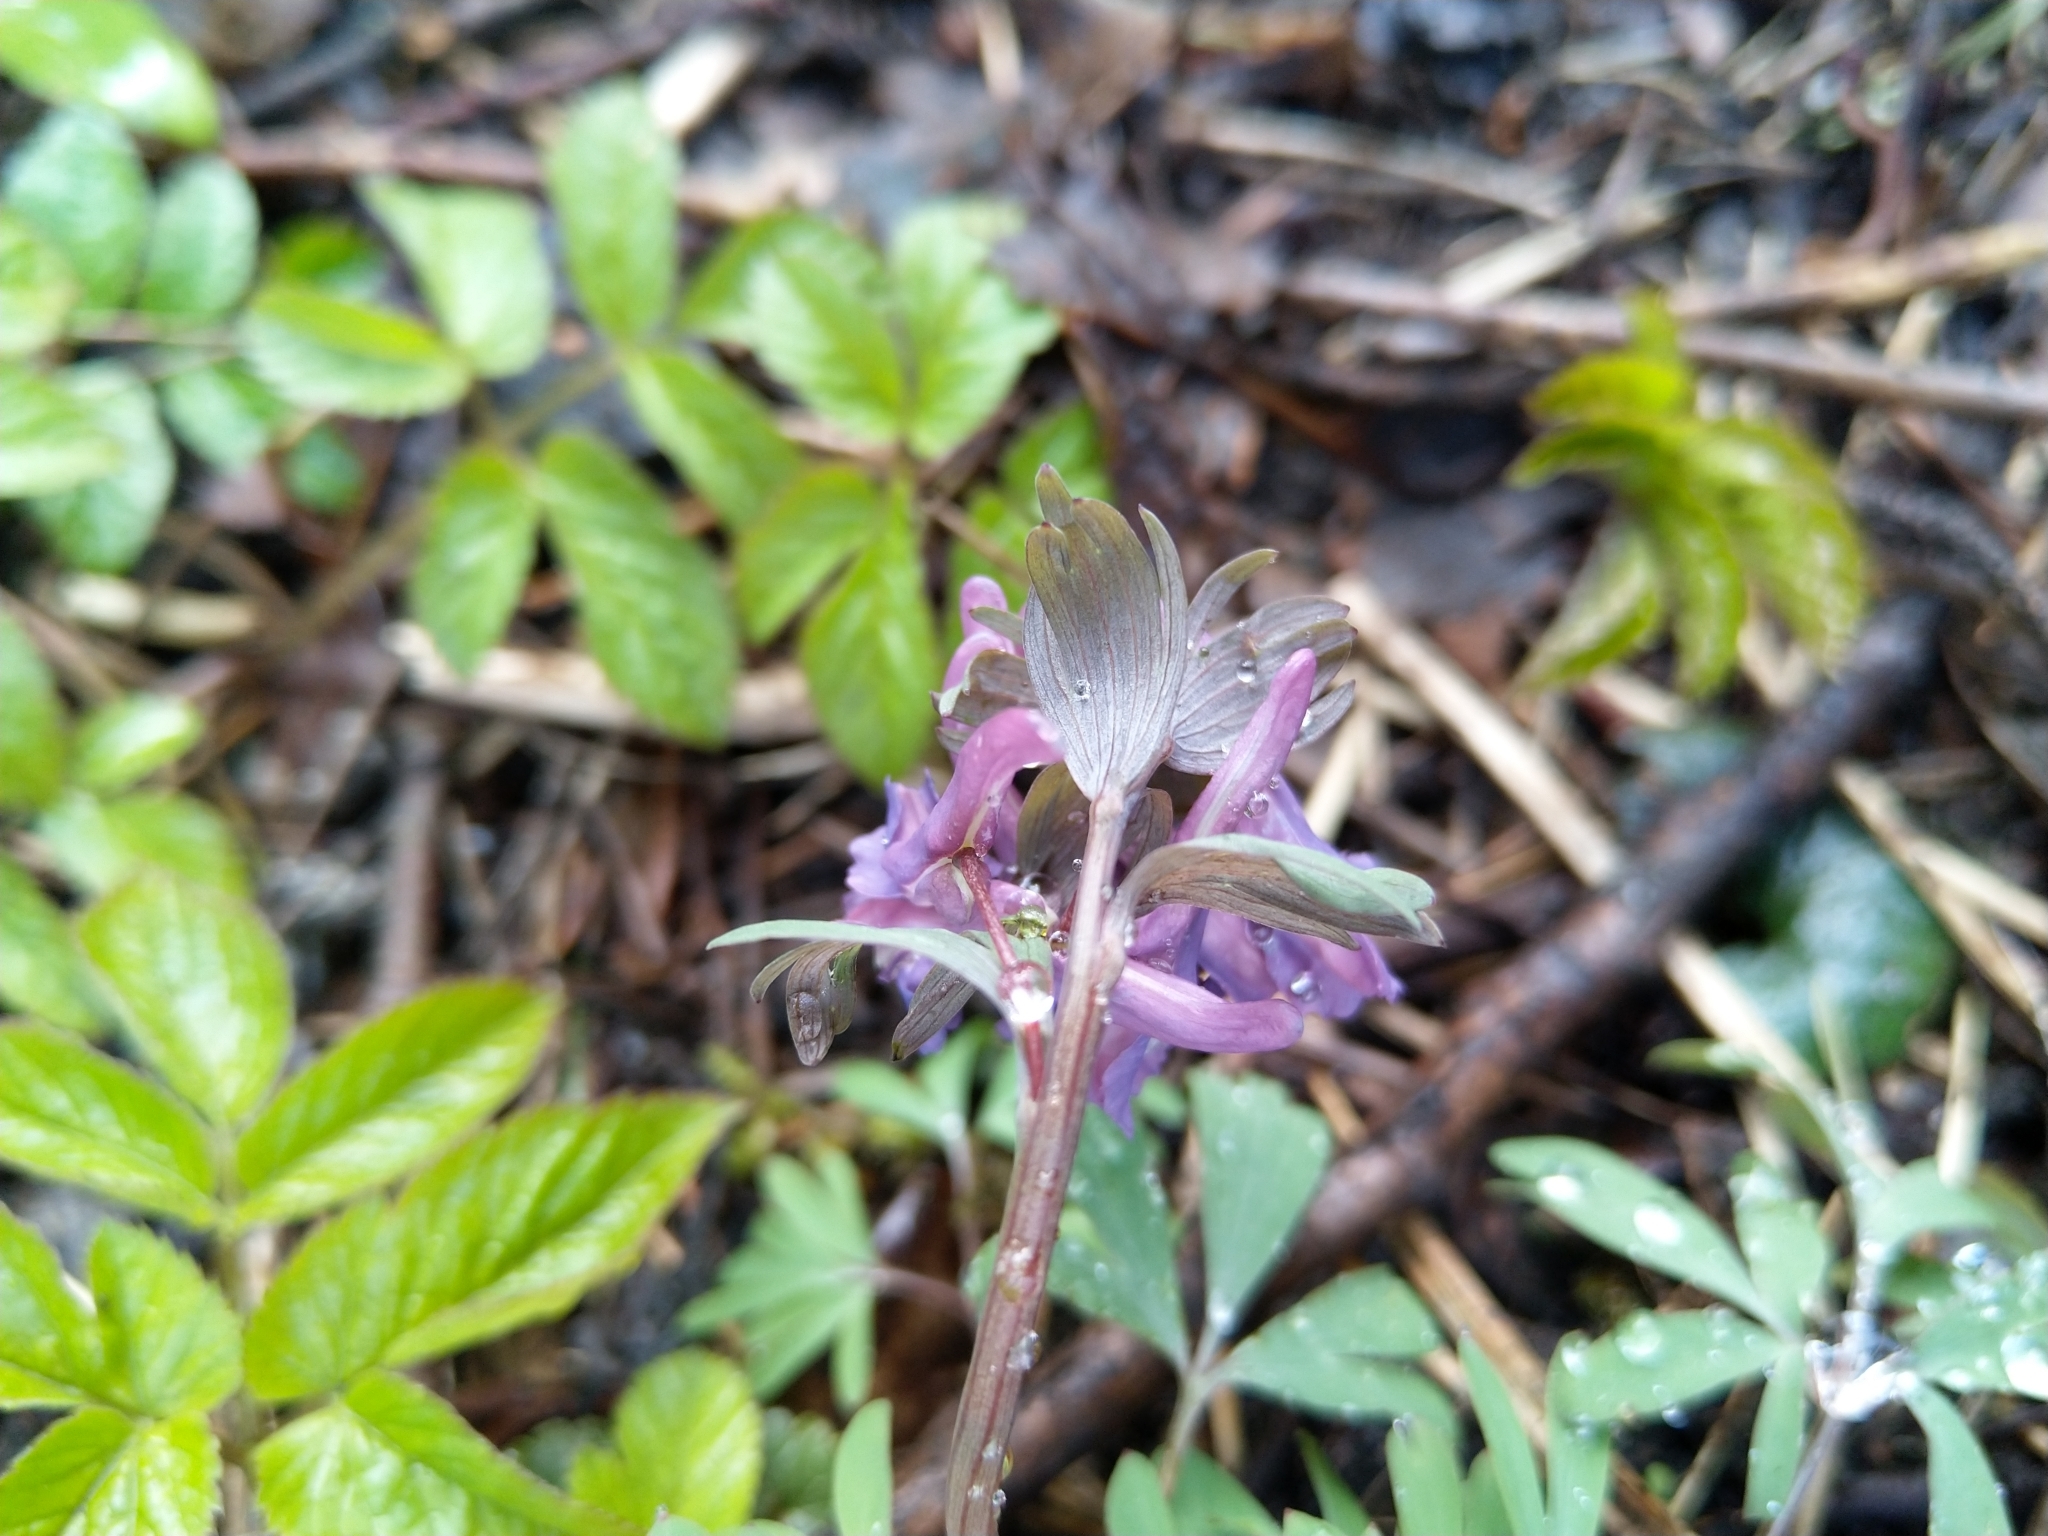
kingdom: Plantae
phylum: Tracheophyta
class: Magnoliopsida
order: Ranunculales
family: Papaveraceae
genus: Corydalis
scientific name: Corydalis solida
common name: Bird-in-a-bush
